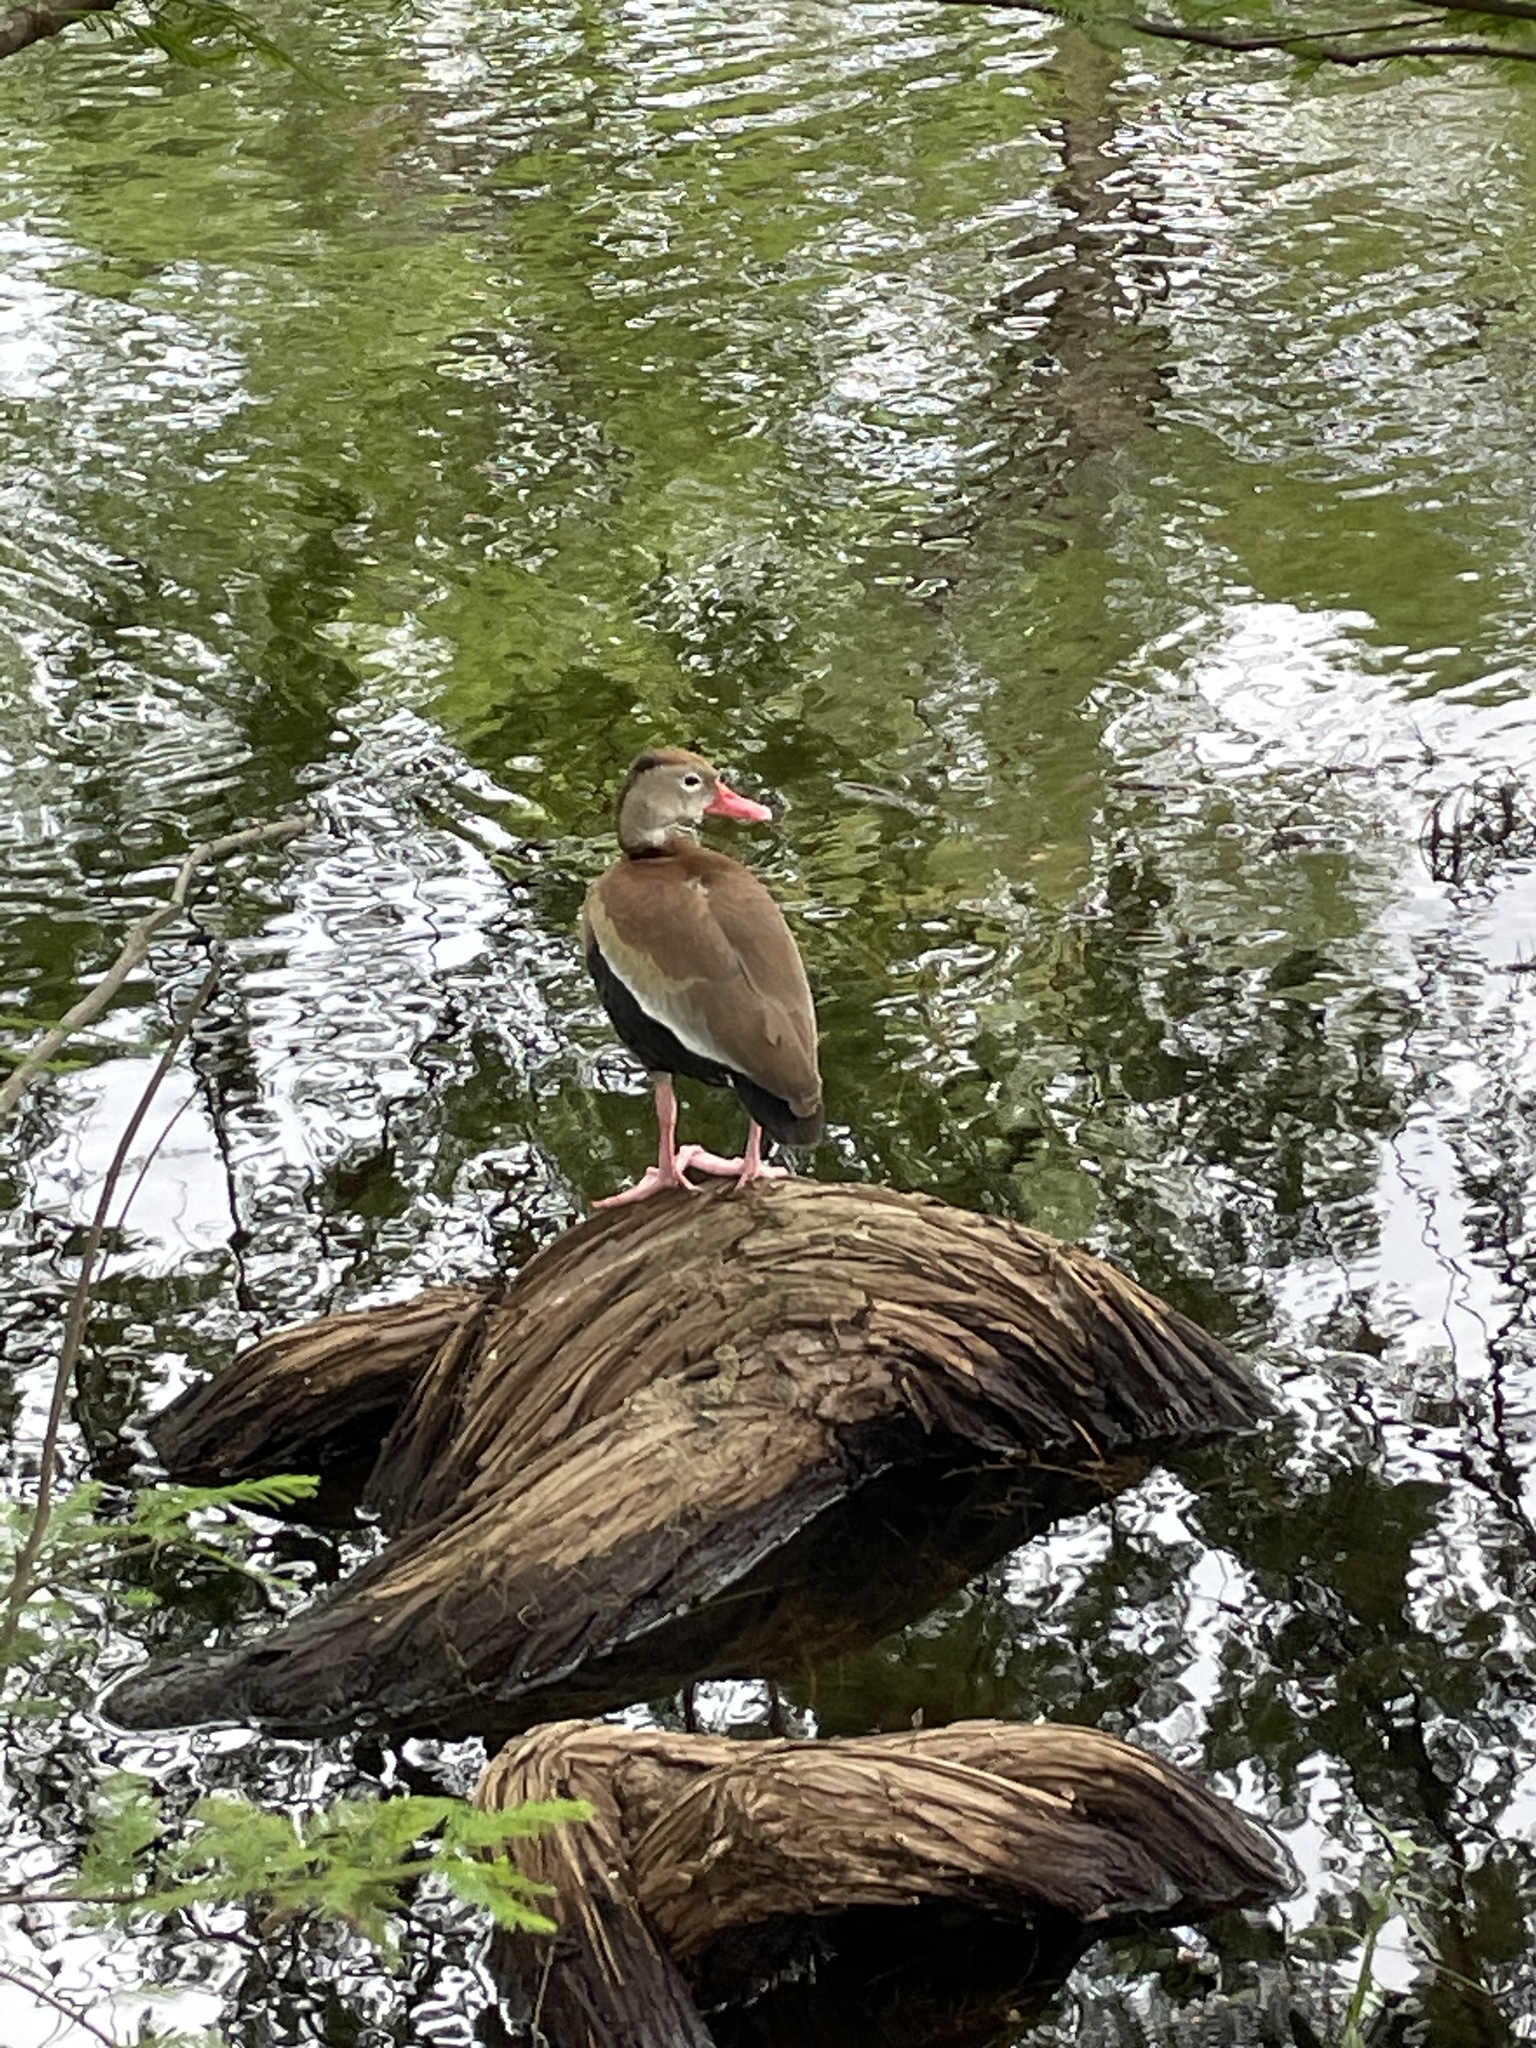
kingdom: Animalia
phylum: Chordata
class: Aves
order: Anseriformes
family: Anatidae
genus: Dendrocygna
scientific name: Dendrocygna autumnalis
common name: Black-bellied whistling duck
